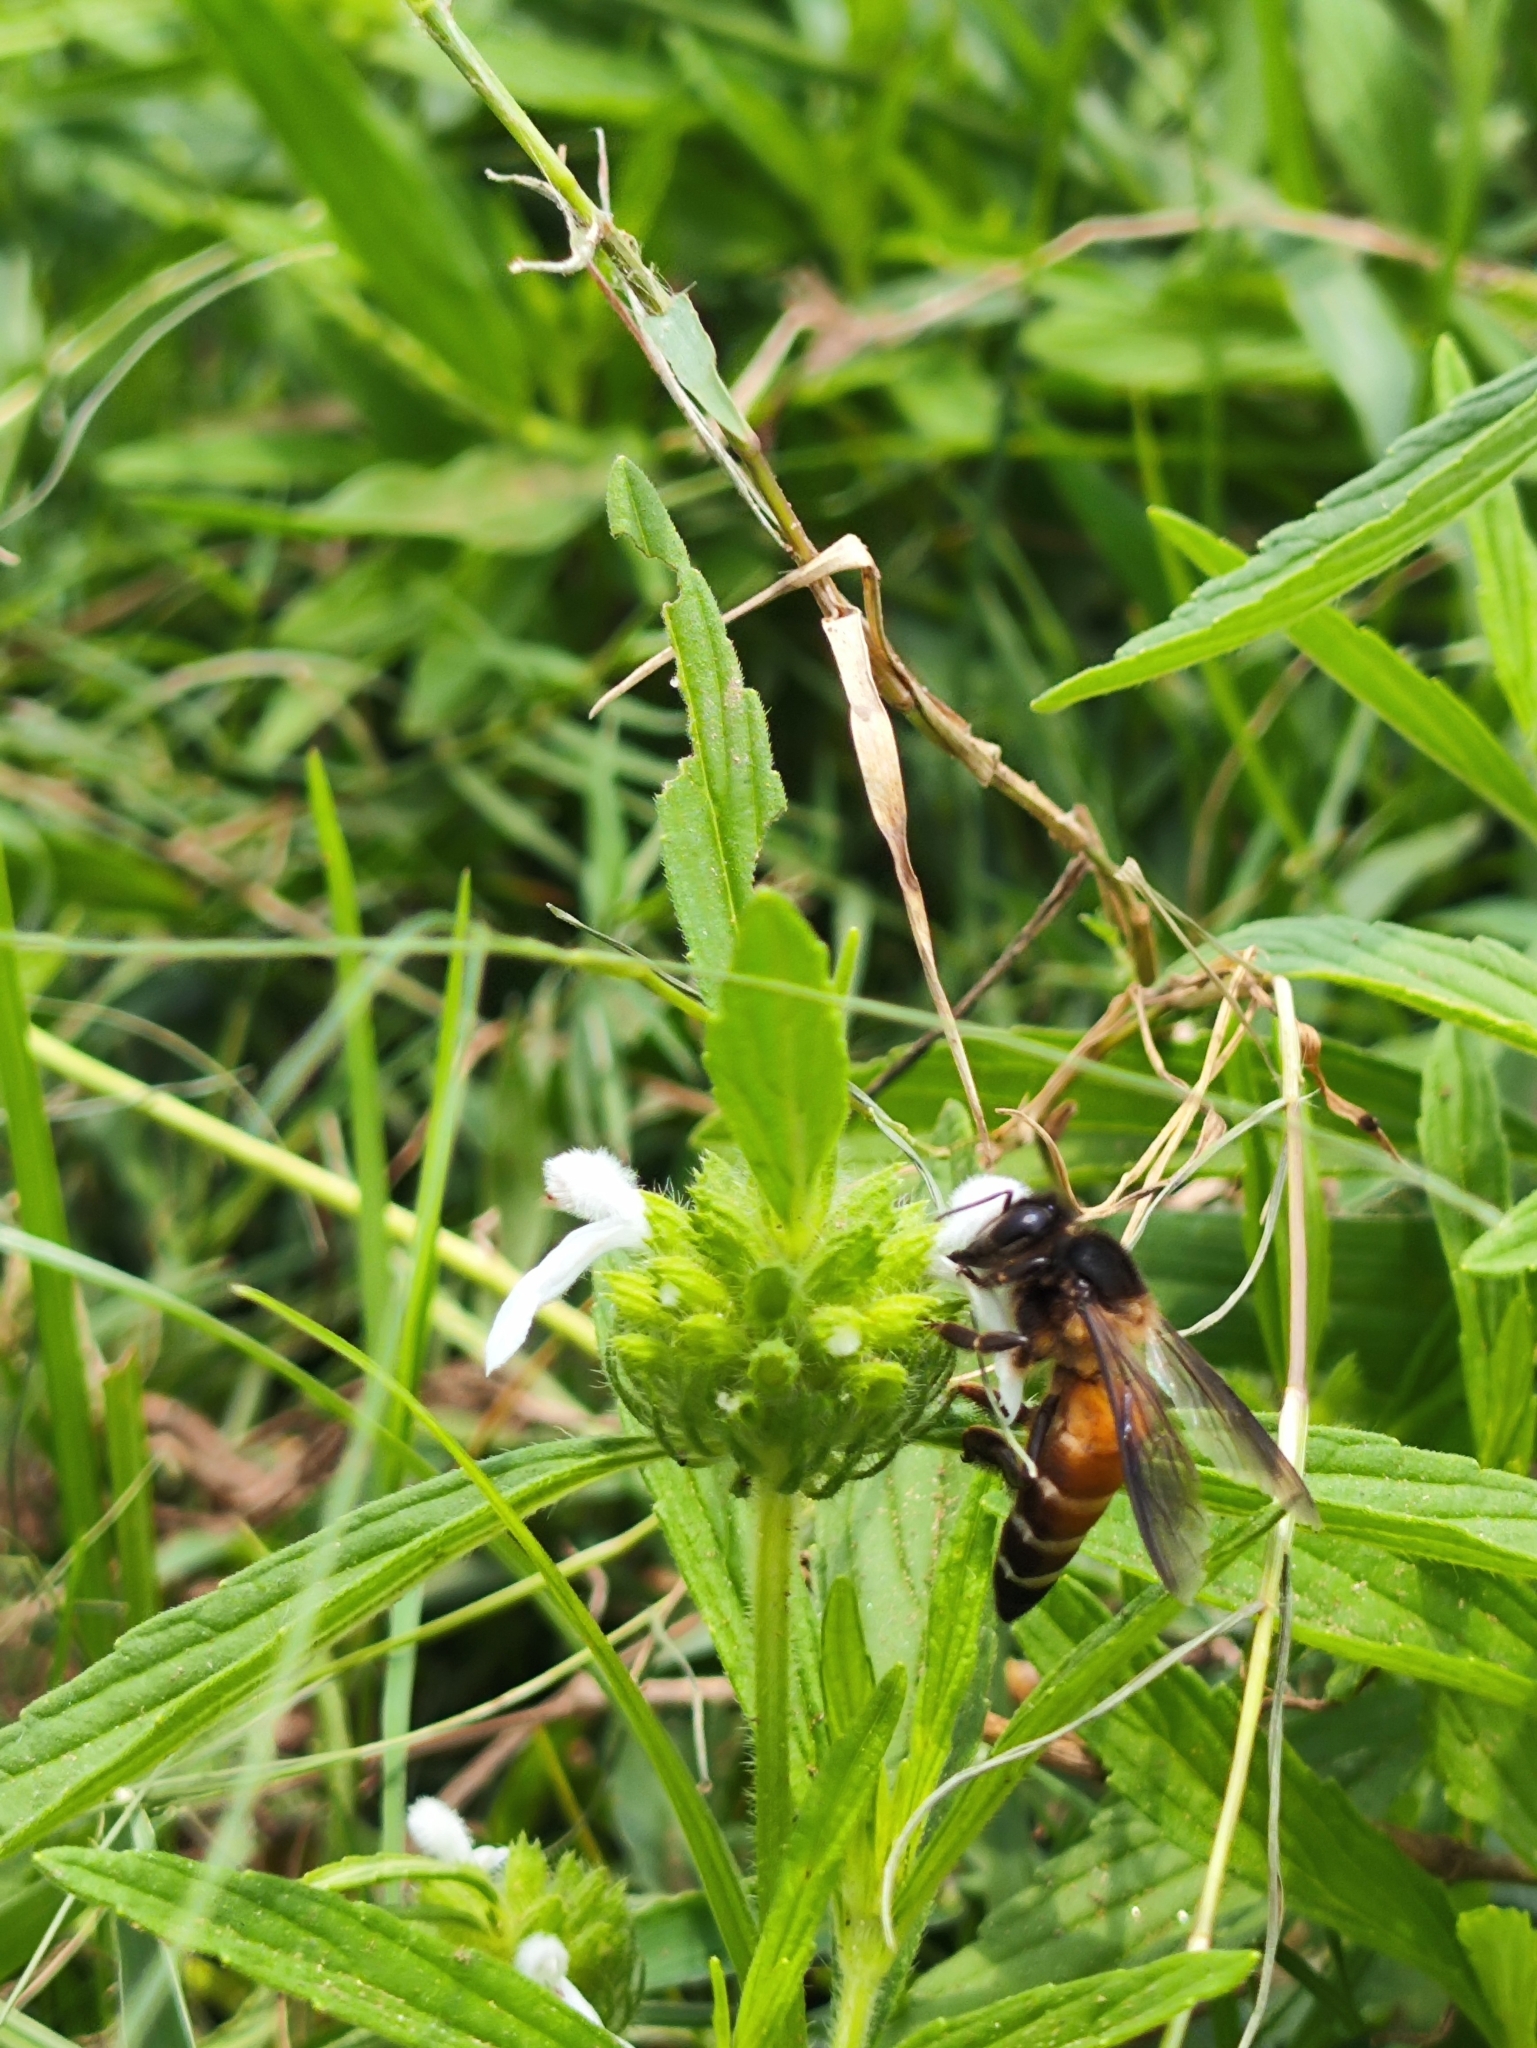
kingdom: Animalia
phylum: Arthropoda
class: Insecta
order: Hymenoptera
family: Apidae
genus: Apis
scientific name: Apis dorsata
